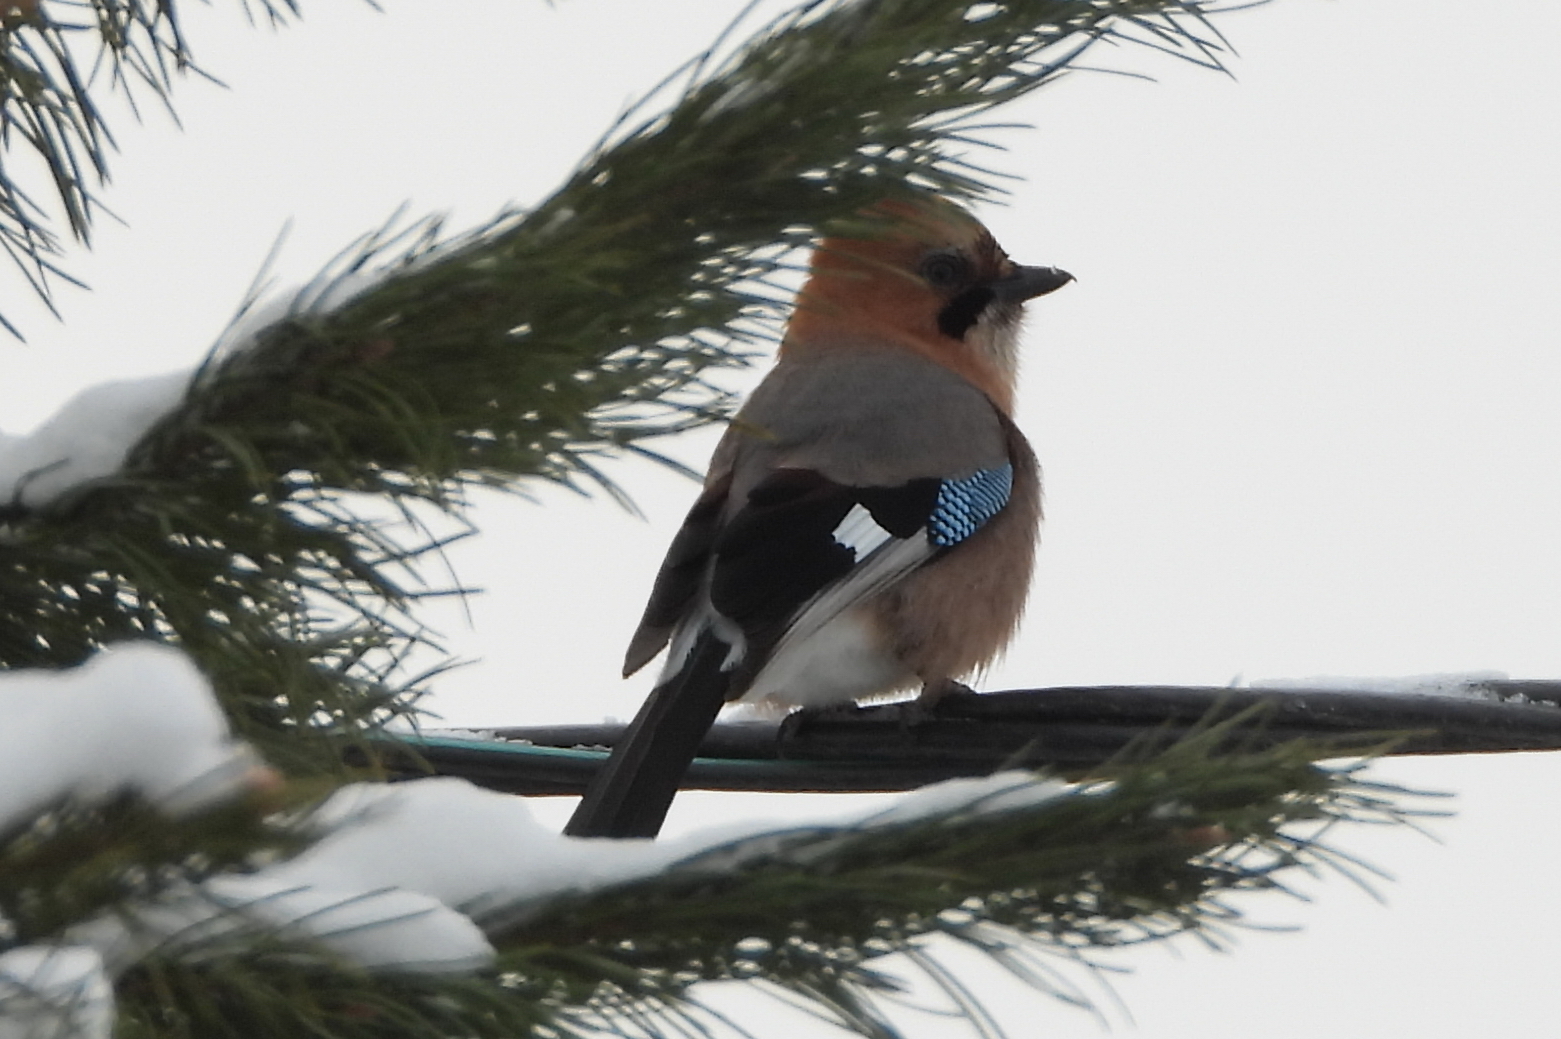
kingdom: Animalia
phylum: Chordata
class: Aves
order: Passeriformes
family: Corvidae
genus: Garrulus
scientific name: Garrulus glandarius
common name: Eurasian jay
